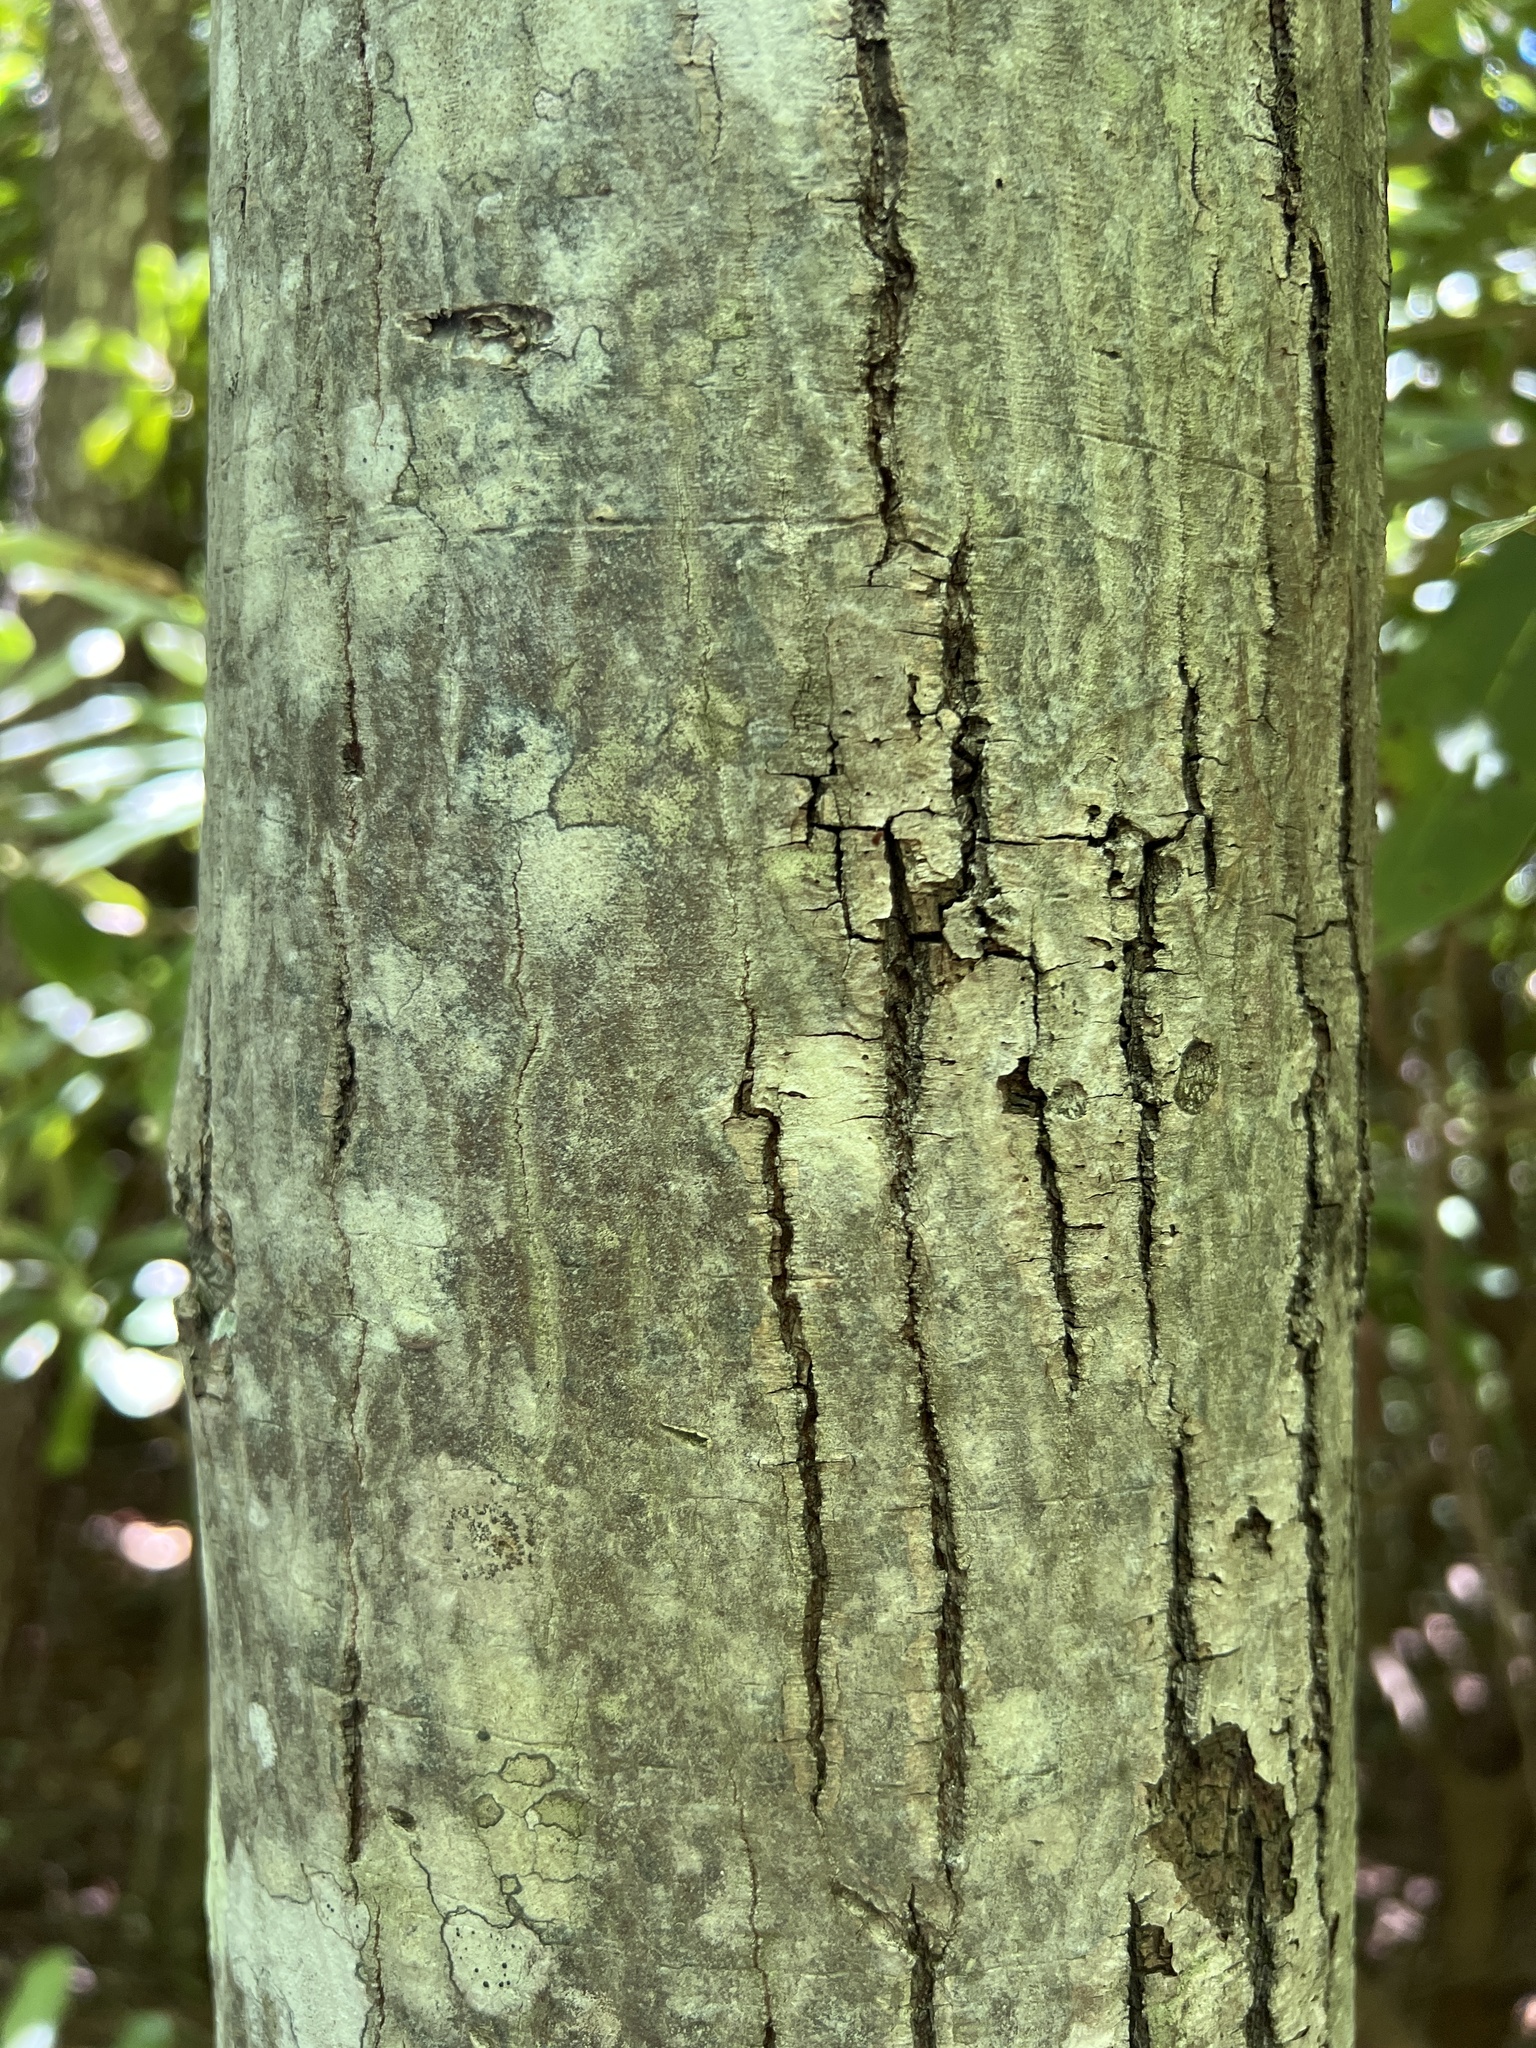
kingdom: Plantae
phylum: Tracheophyta
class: Magnoliopsida
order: Rosales
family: Rosaceae
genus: Amelanchier
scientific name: Amelanchier laevis
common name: Allegheny serviceberry
